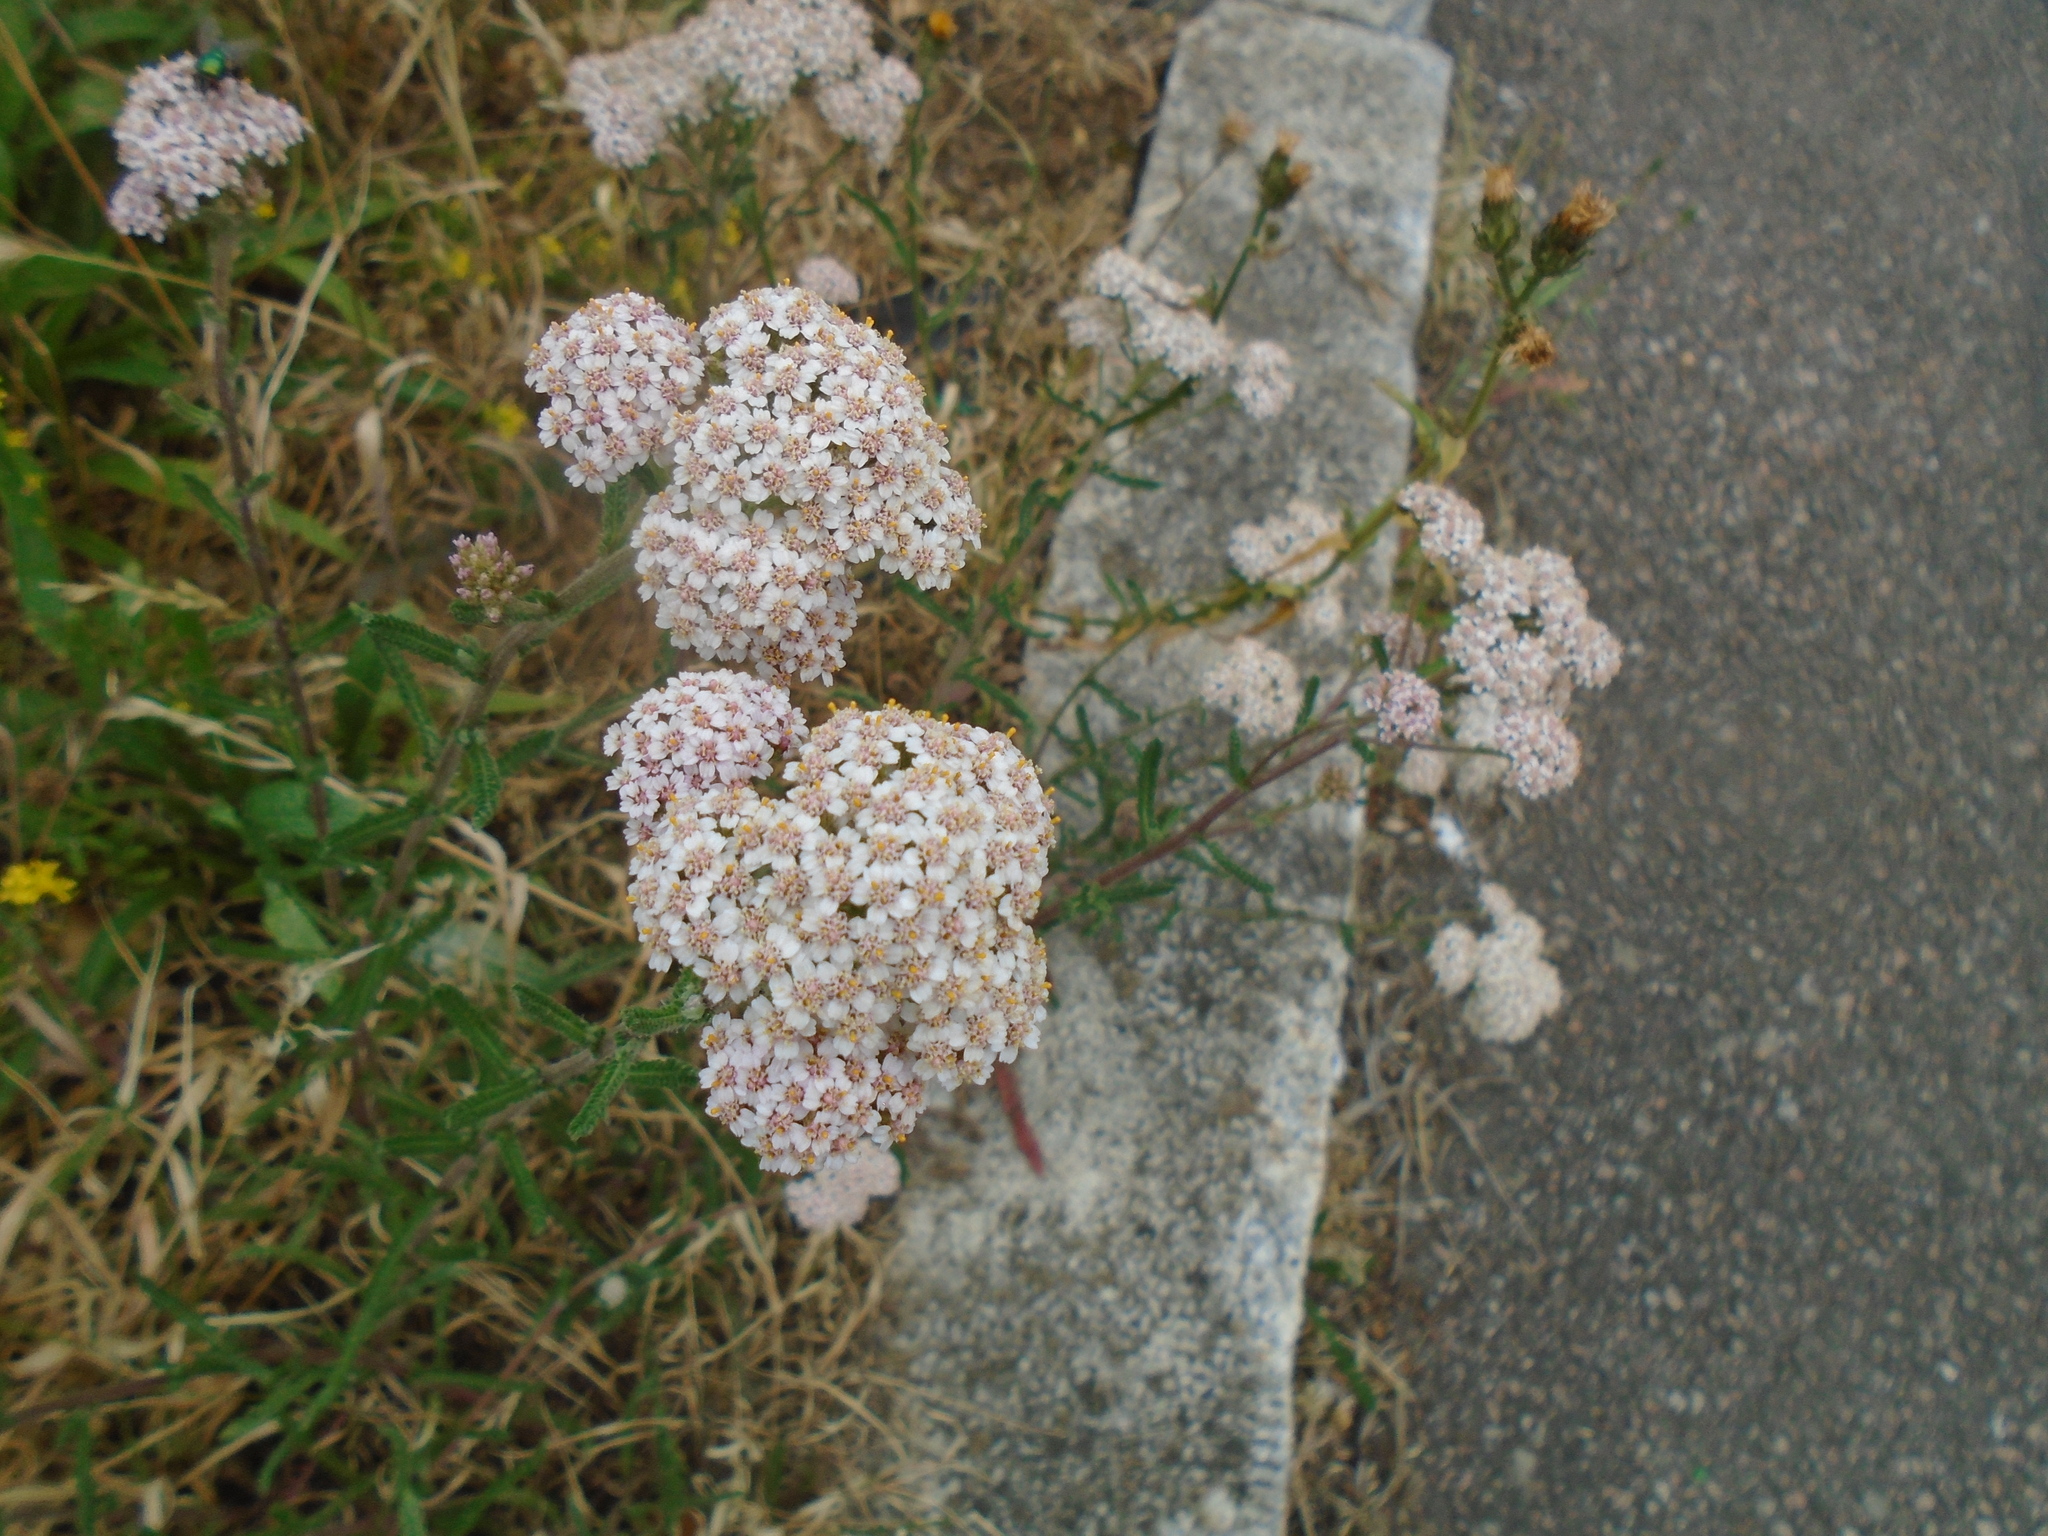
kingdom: Plantae
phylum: Tracheophyta
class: Magnoliopsida
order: Asterales
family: Asteraceae
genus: Achillea
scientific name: Achillea millefolium
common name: Yarrow
